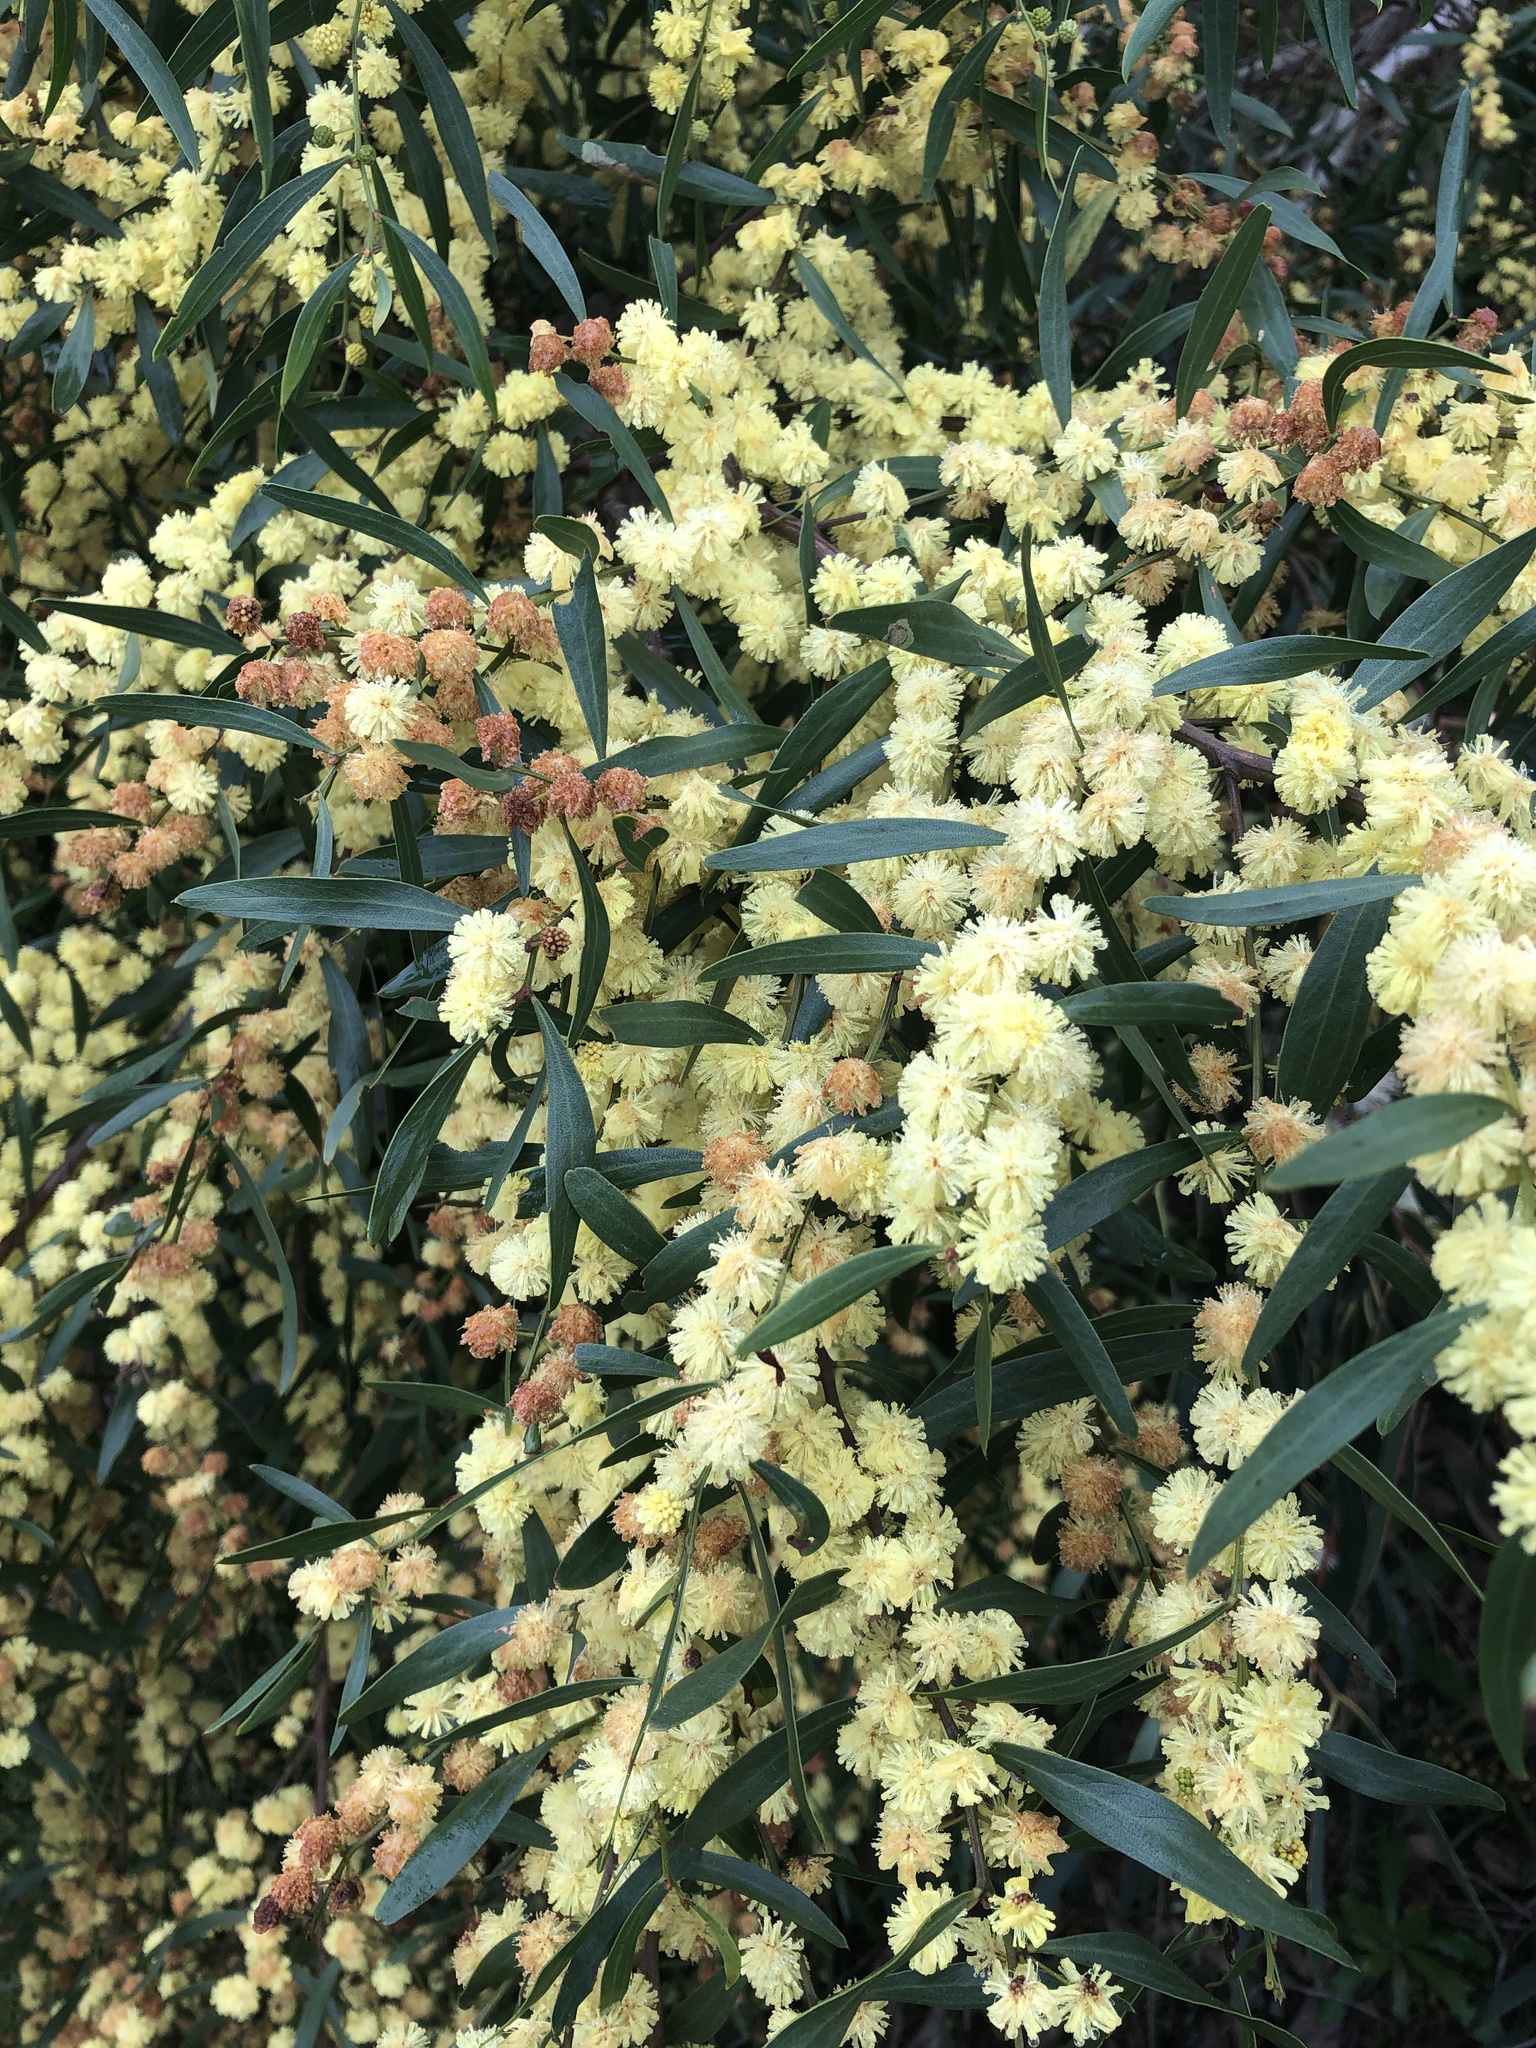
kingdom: Plantae
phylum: Tracheophyta
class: Magnoliopsida
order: Fabales
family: Fabaceae
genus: Acacia
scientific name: Acacia verniciflua
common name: Varnish wattle
